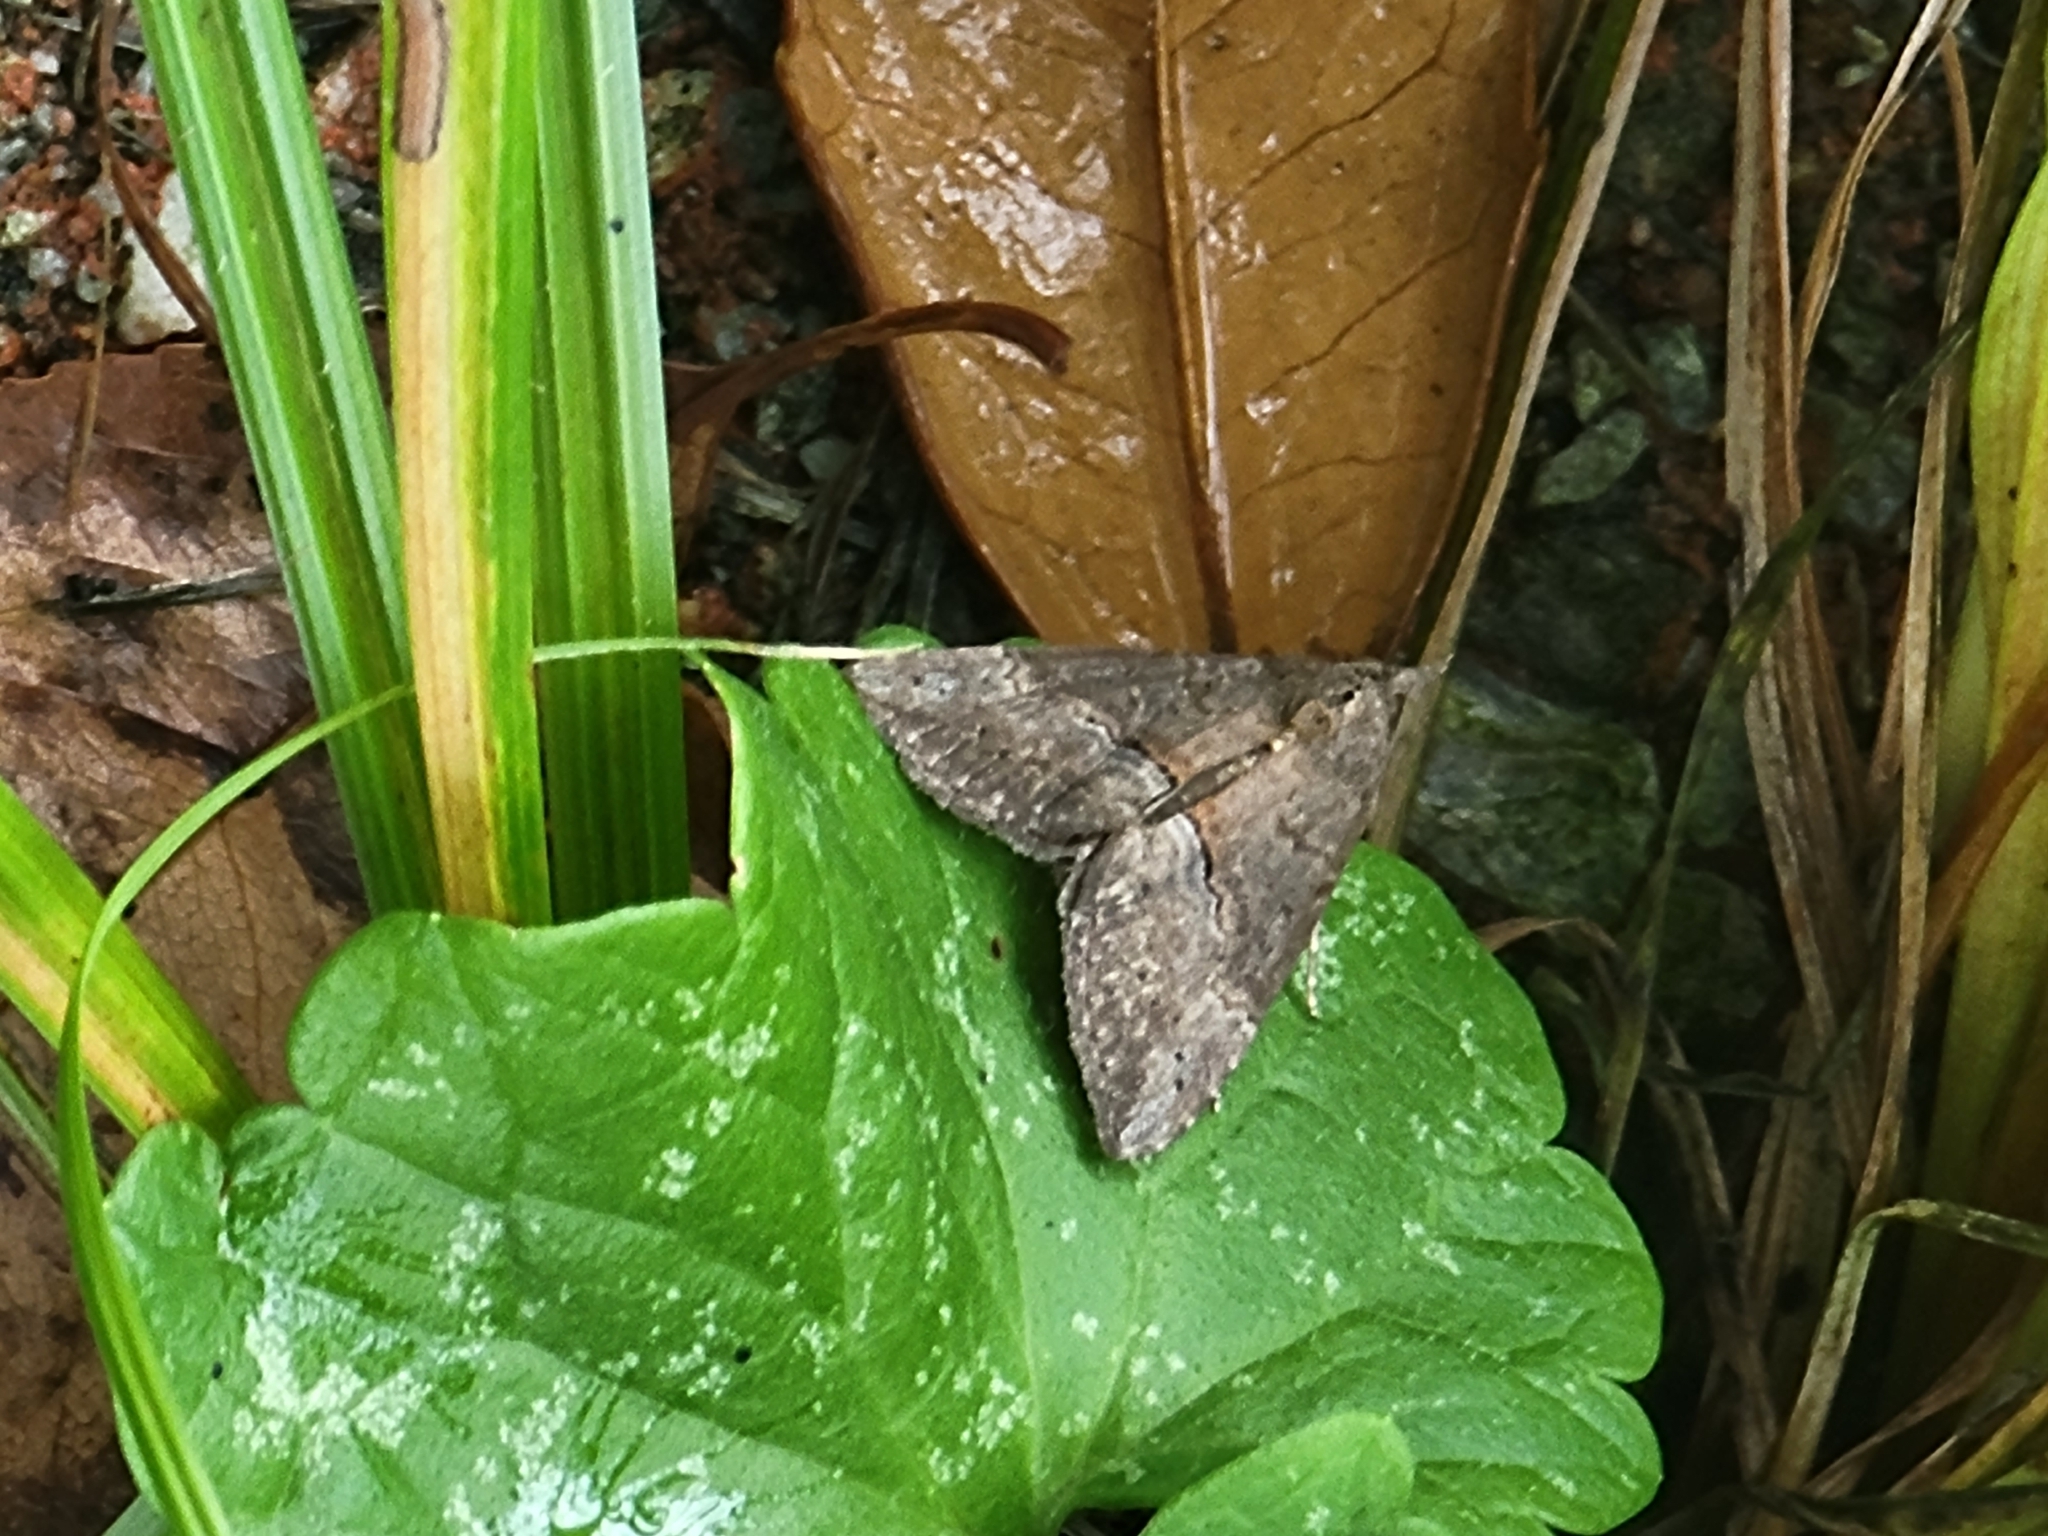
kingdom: Animalia
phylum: Arthropoda
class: Insecta
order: Lepidoptera
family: Erebidae
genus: Hypena
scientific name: Hypena scabra
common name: Green cloverworm
